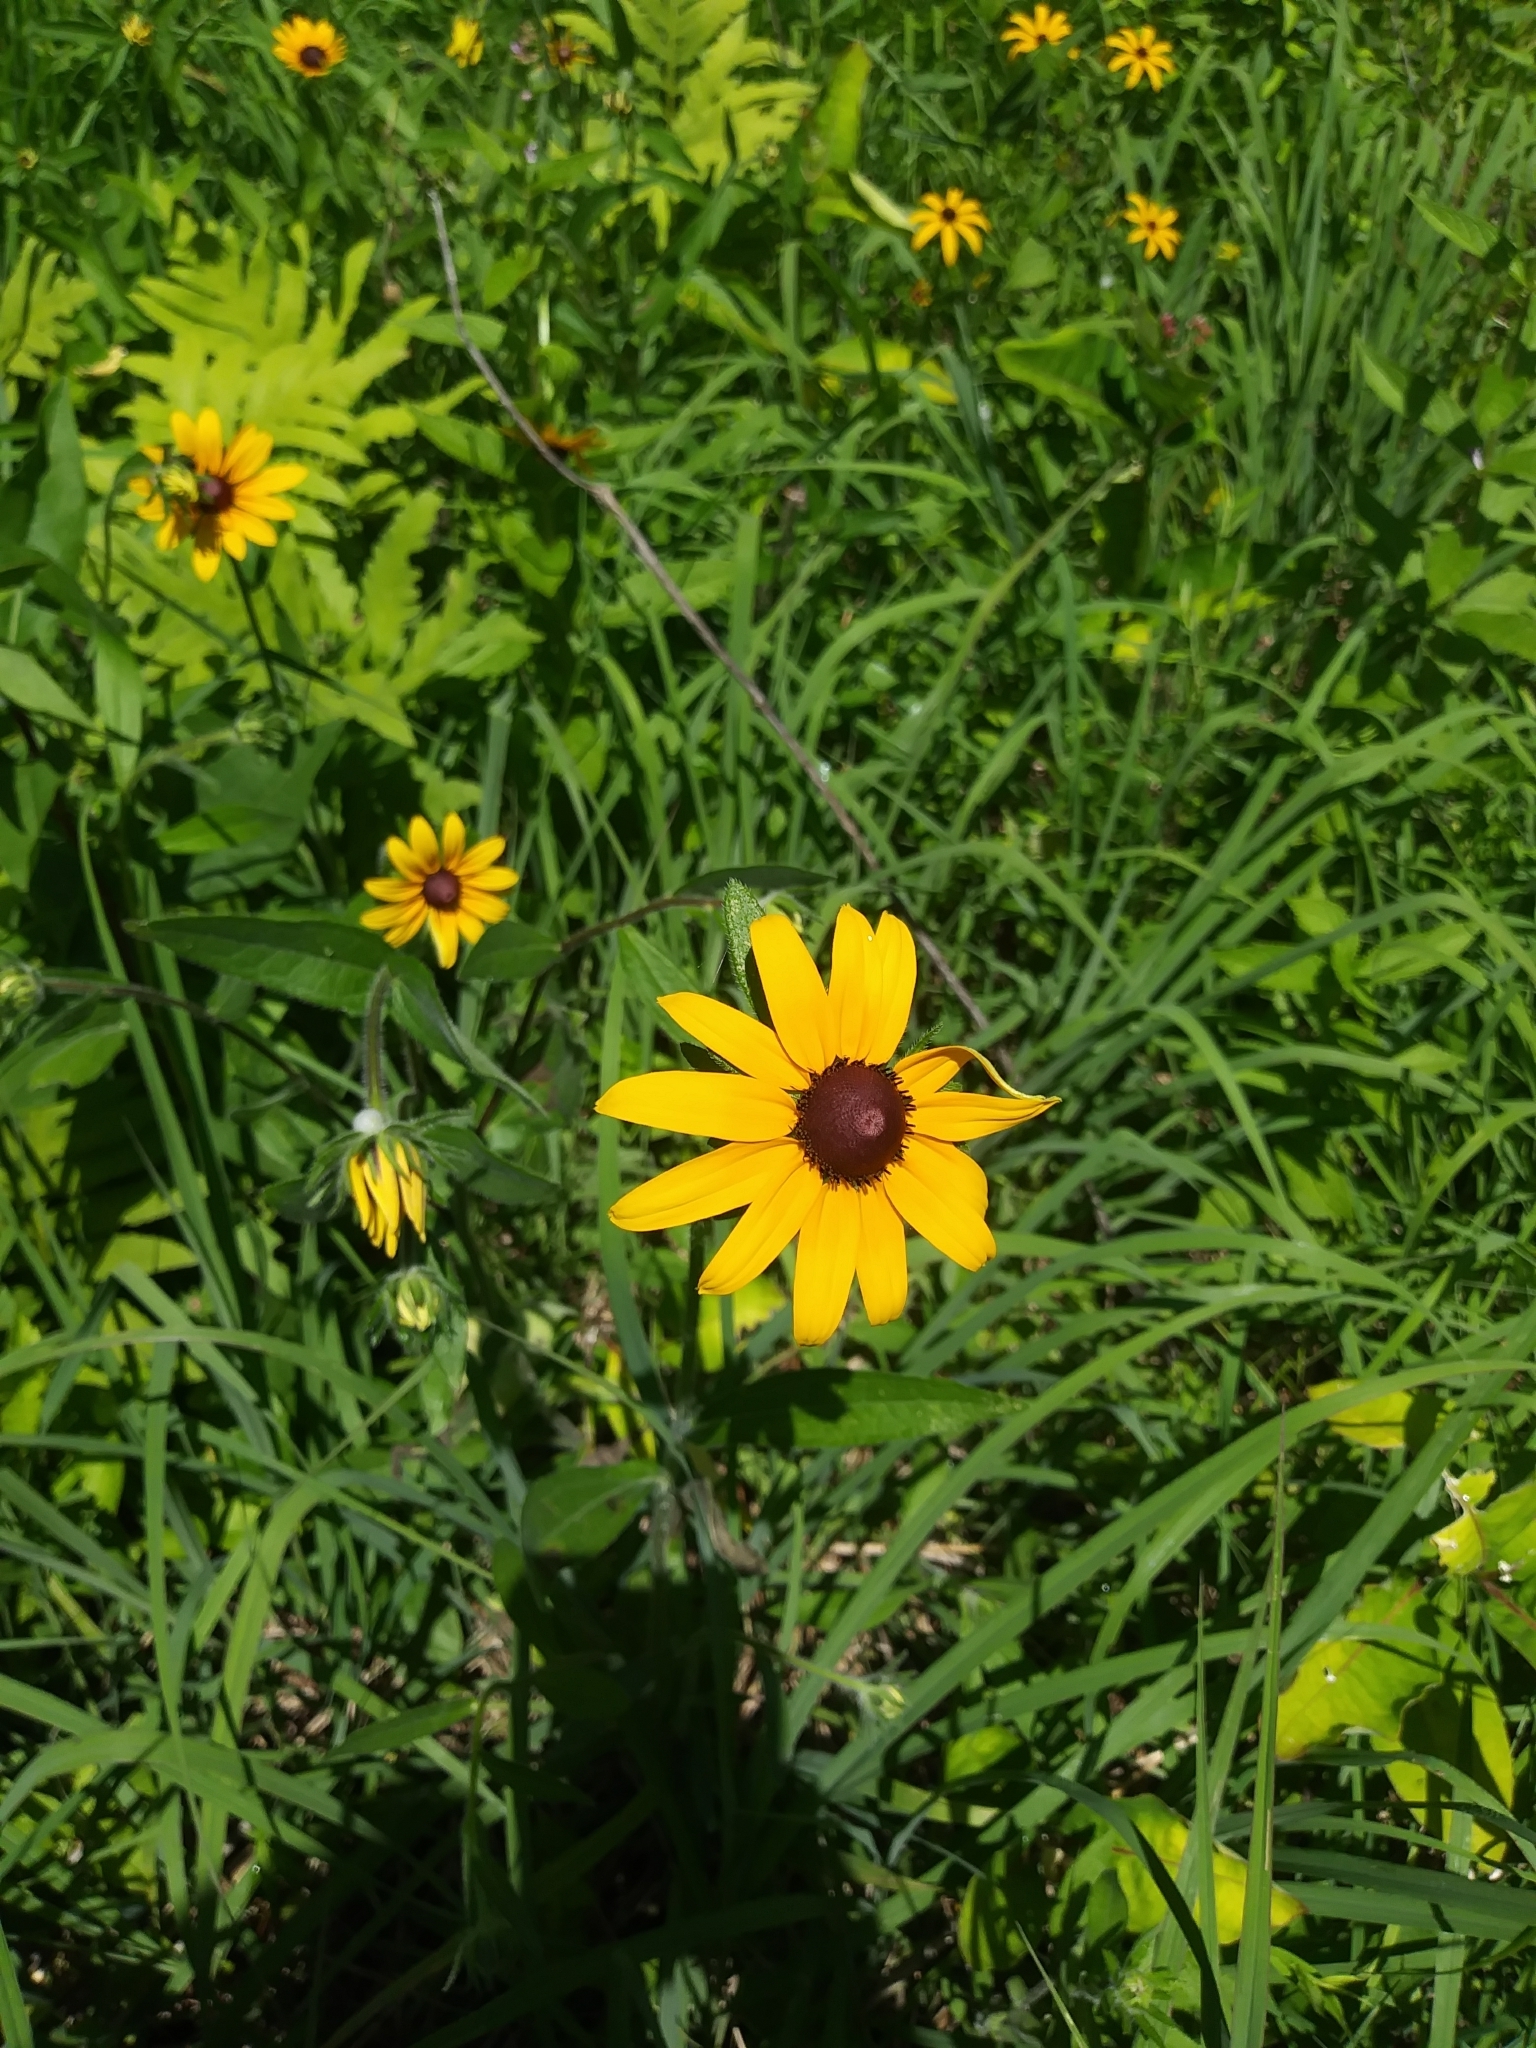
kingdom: Plantae
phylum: Tracheophyta
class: Magnoliopsida
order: Asterales
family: Asteraceae
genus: Rudbeckia
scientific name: Rudbeckia hirta
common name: Black-eyed-susan
